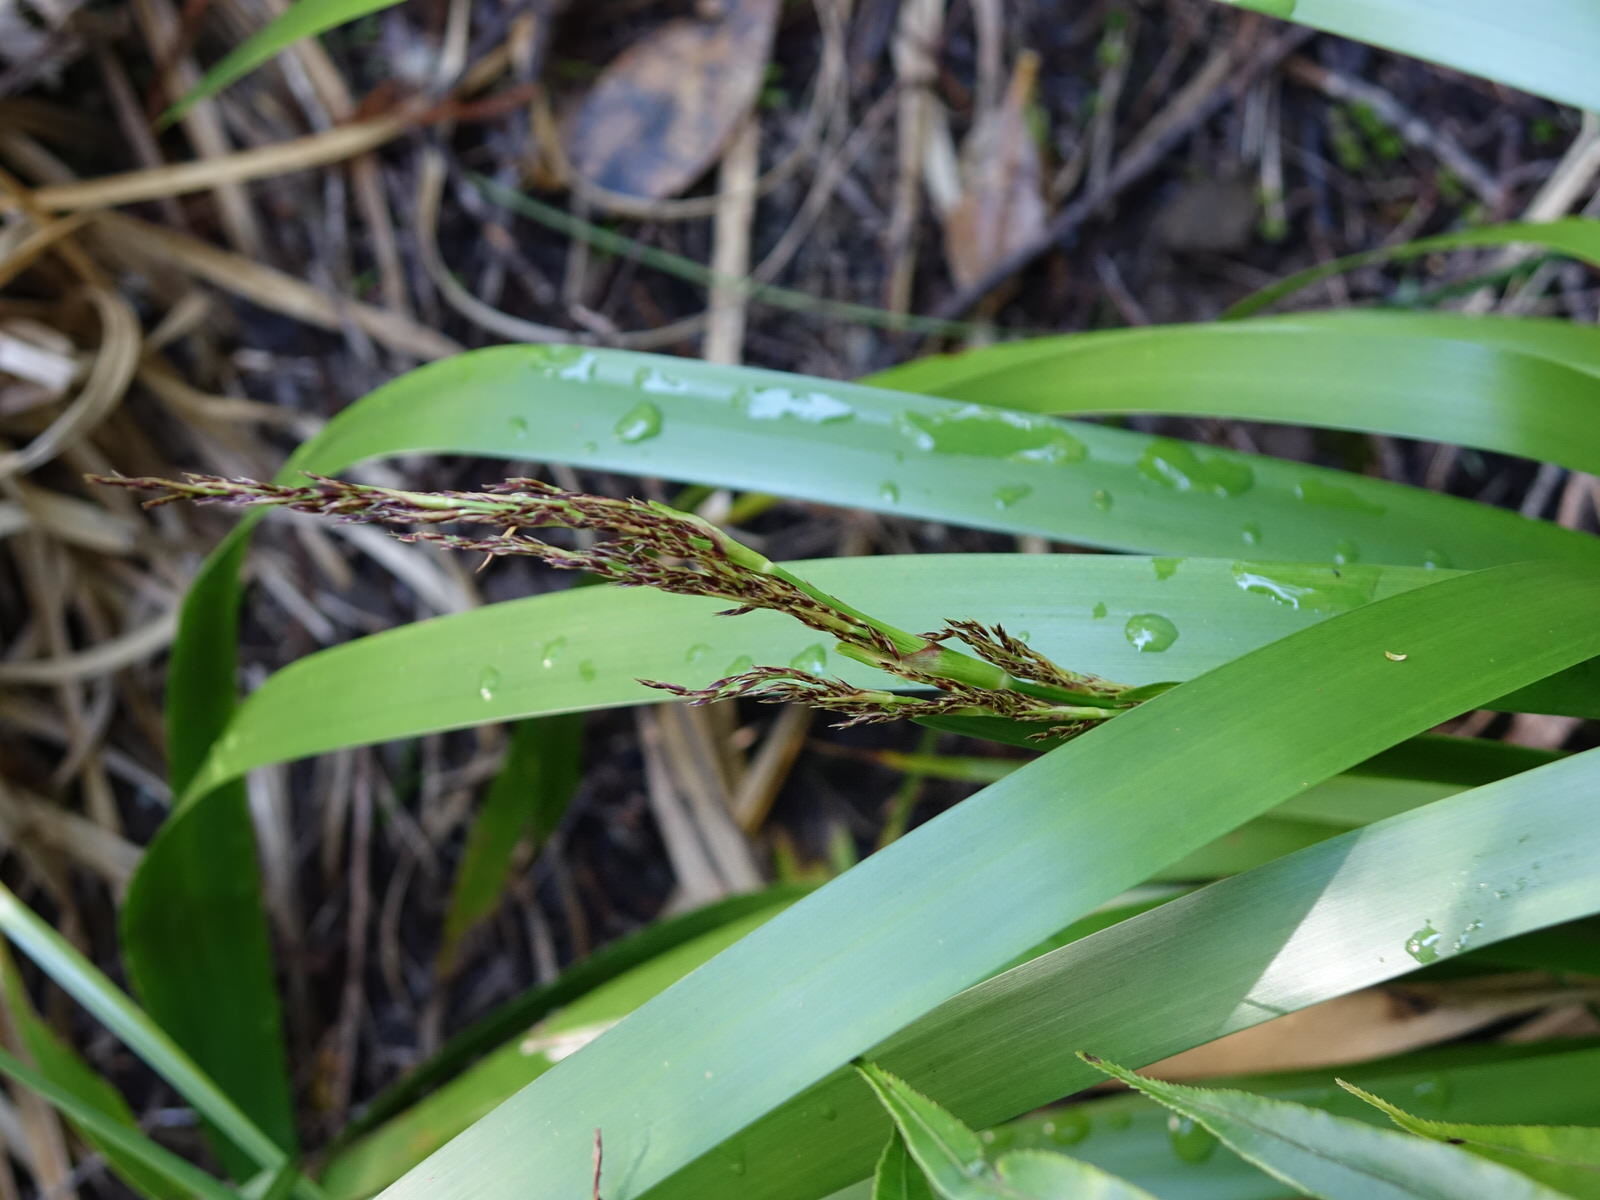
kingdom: Plantae
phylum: Tracheophyta
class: Liliopsida
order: Poales
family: Cyperaceae
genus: Machaerina
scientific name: Machaerina sinclairii
